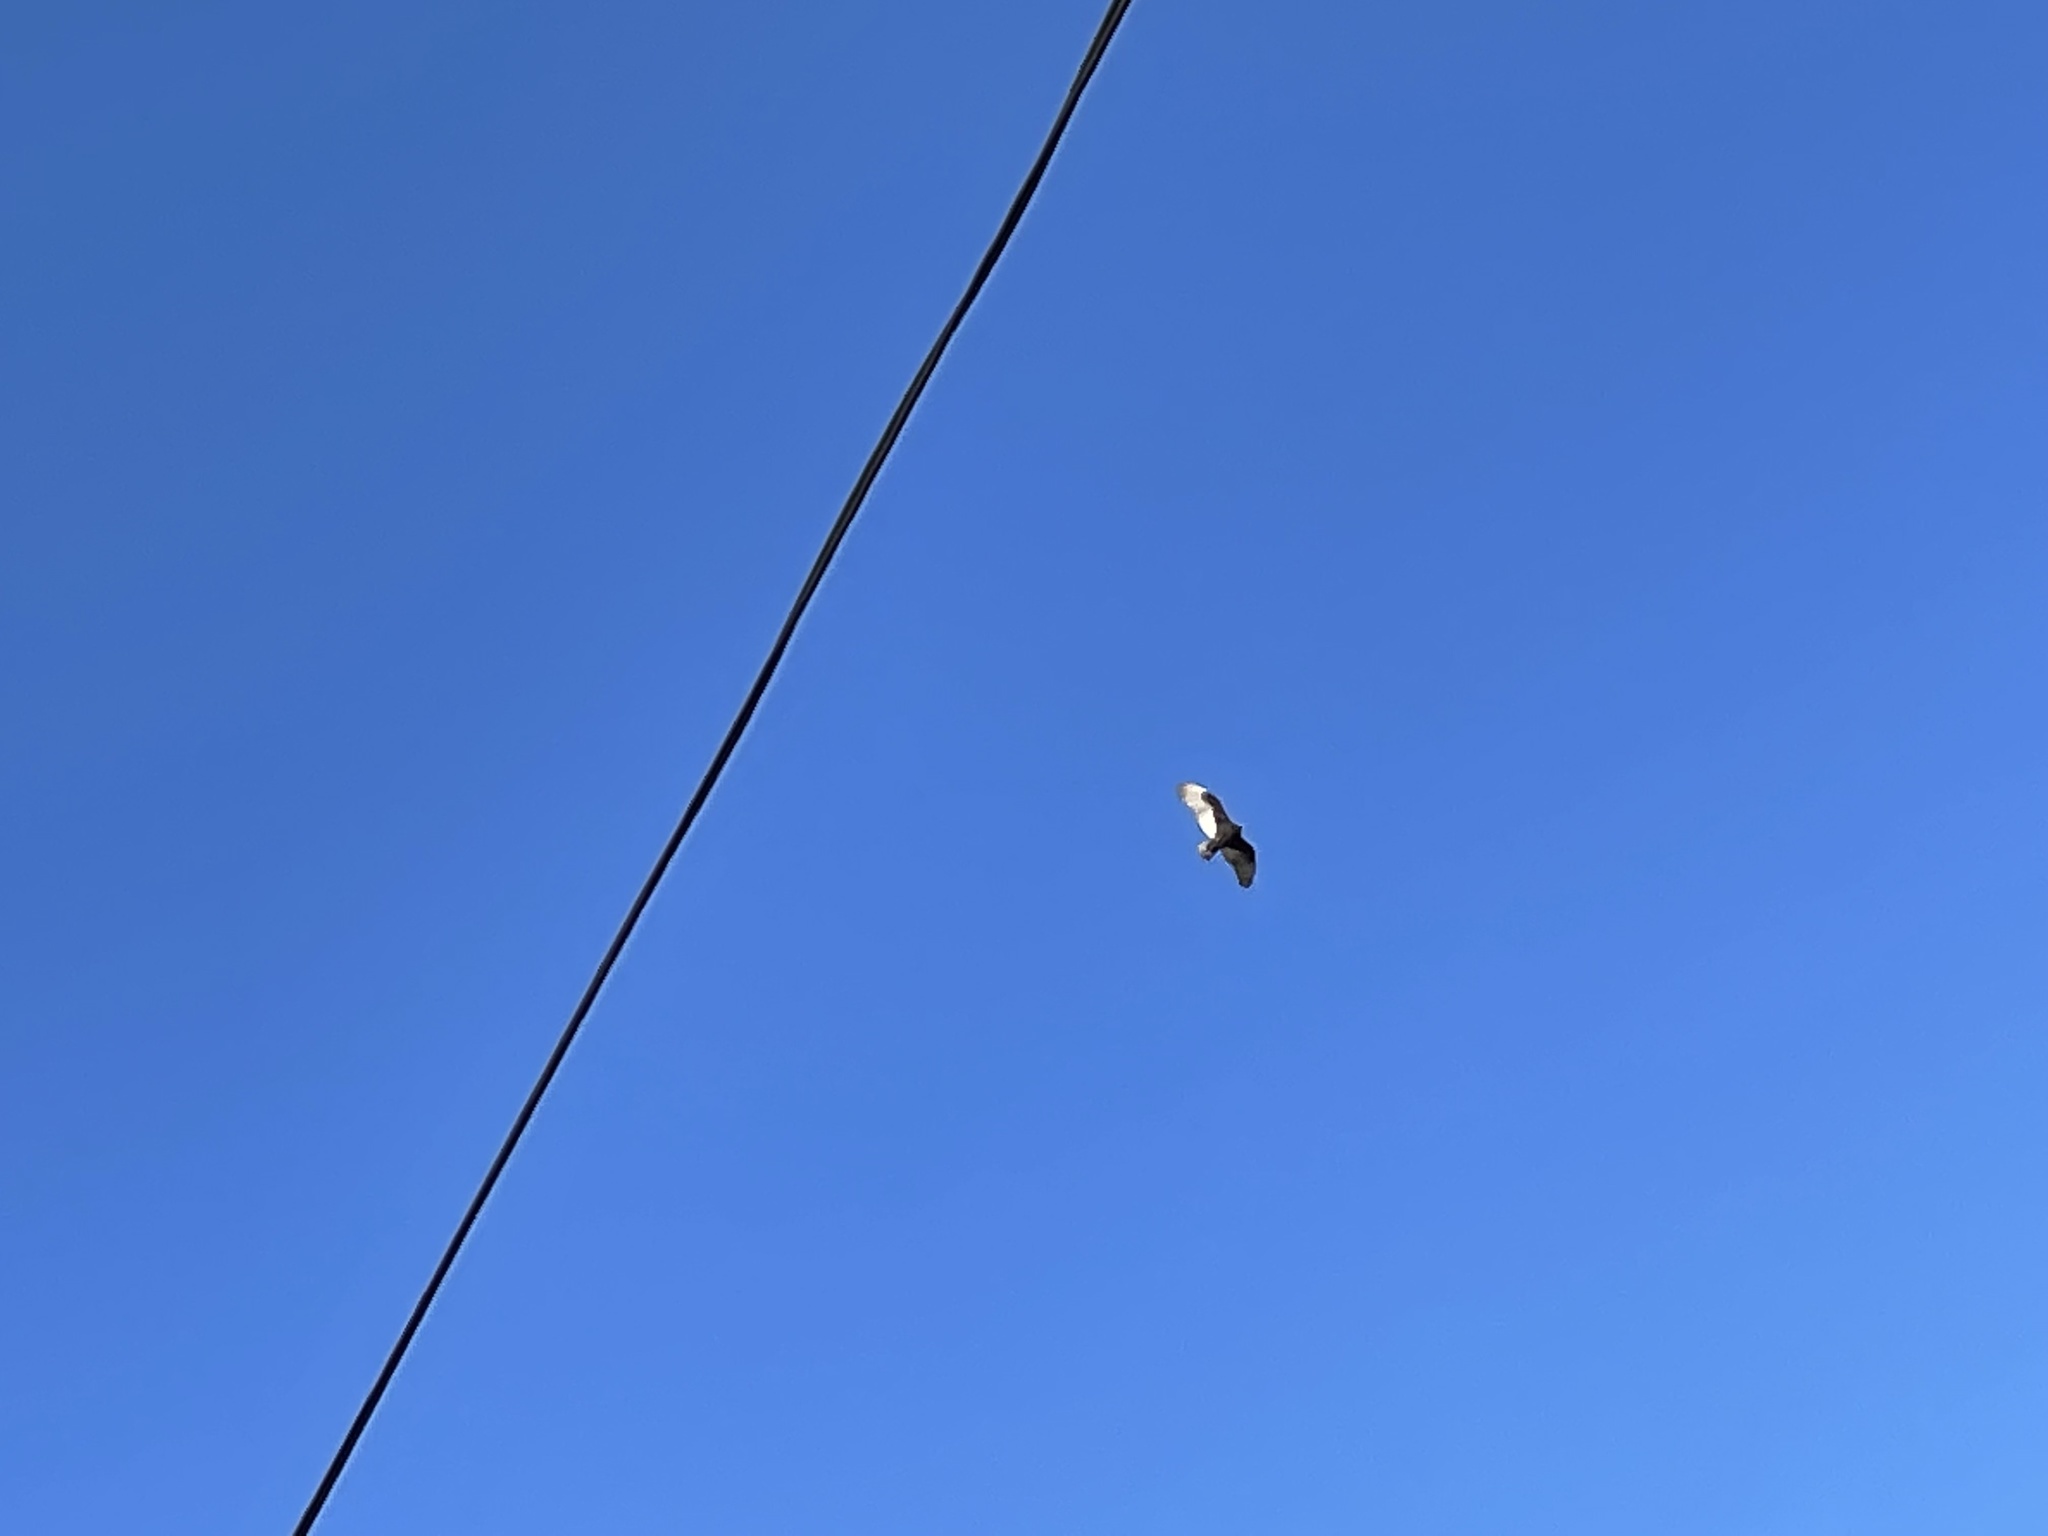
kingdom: Animalia
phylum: Chordata
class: Aves
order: Accipitriformes
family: Cathartidae
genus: Cathartes
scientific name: Cathartes aura
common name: Turkey vulture
